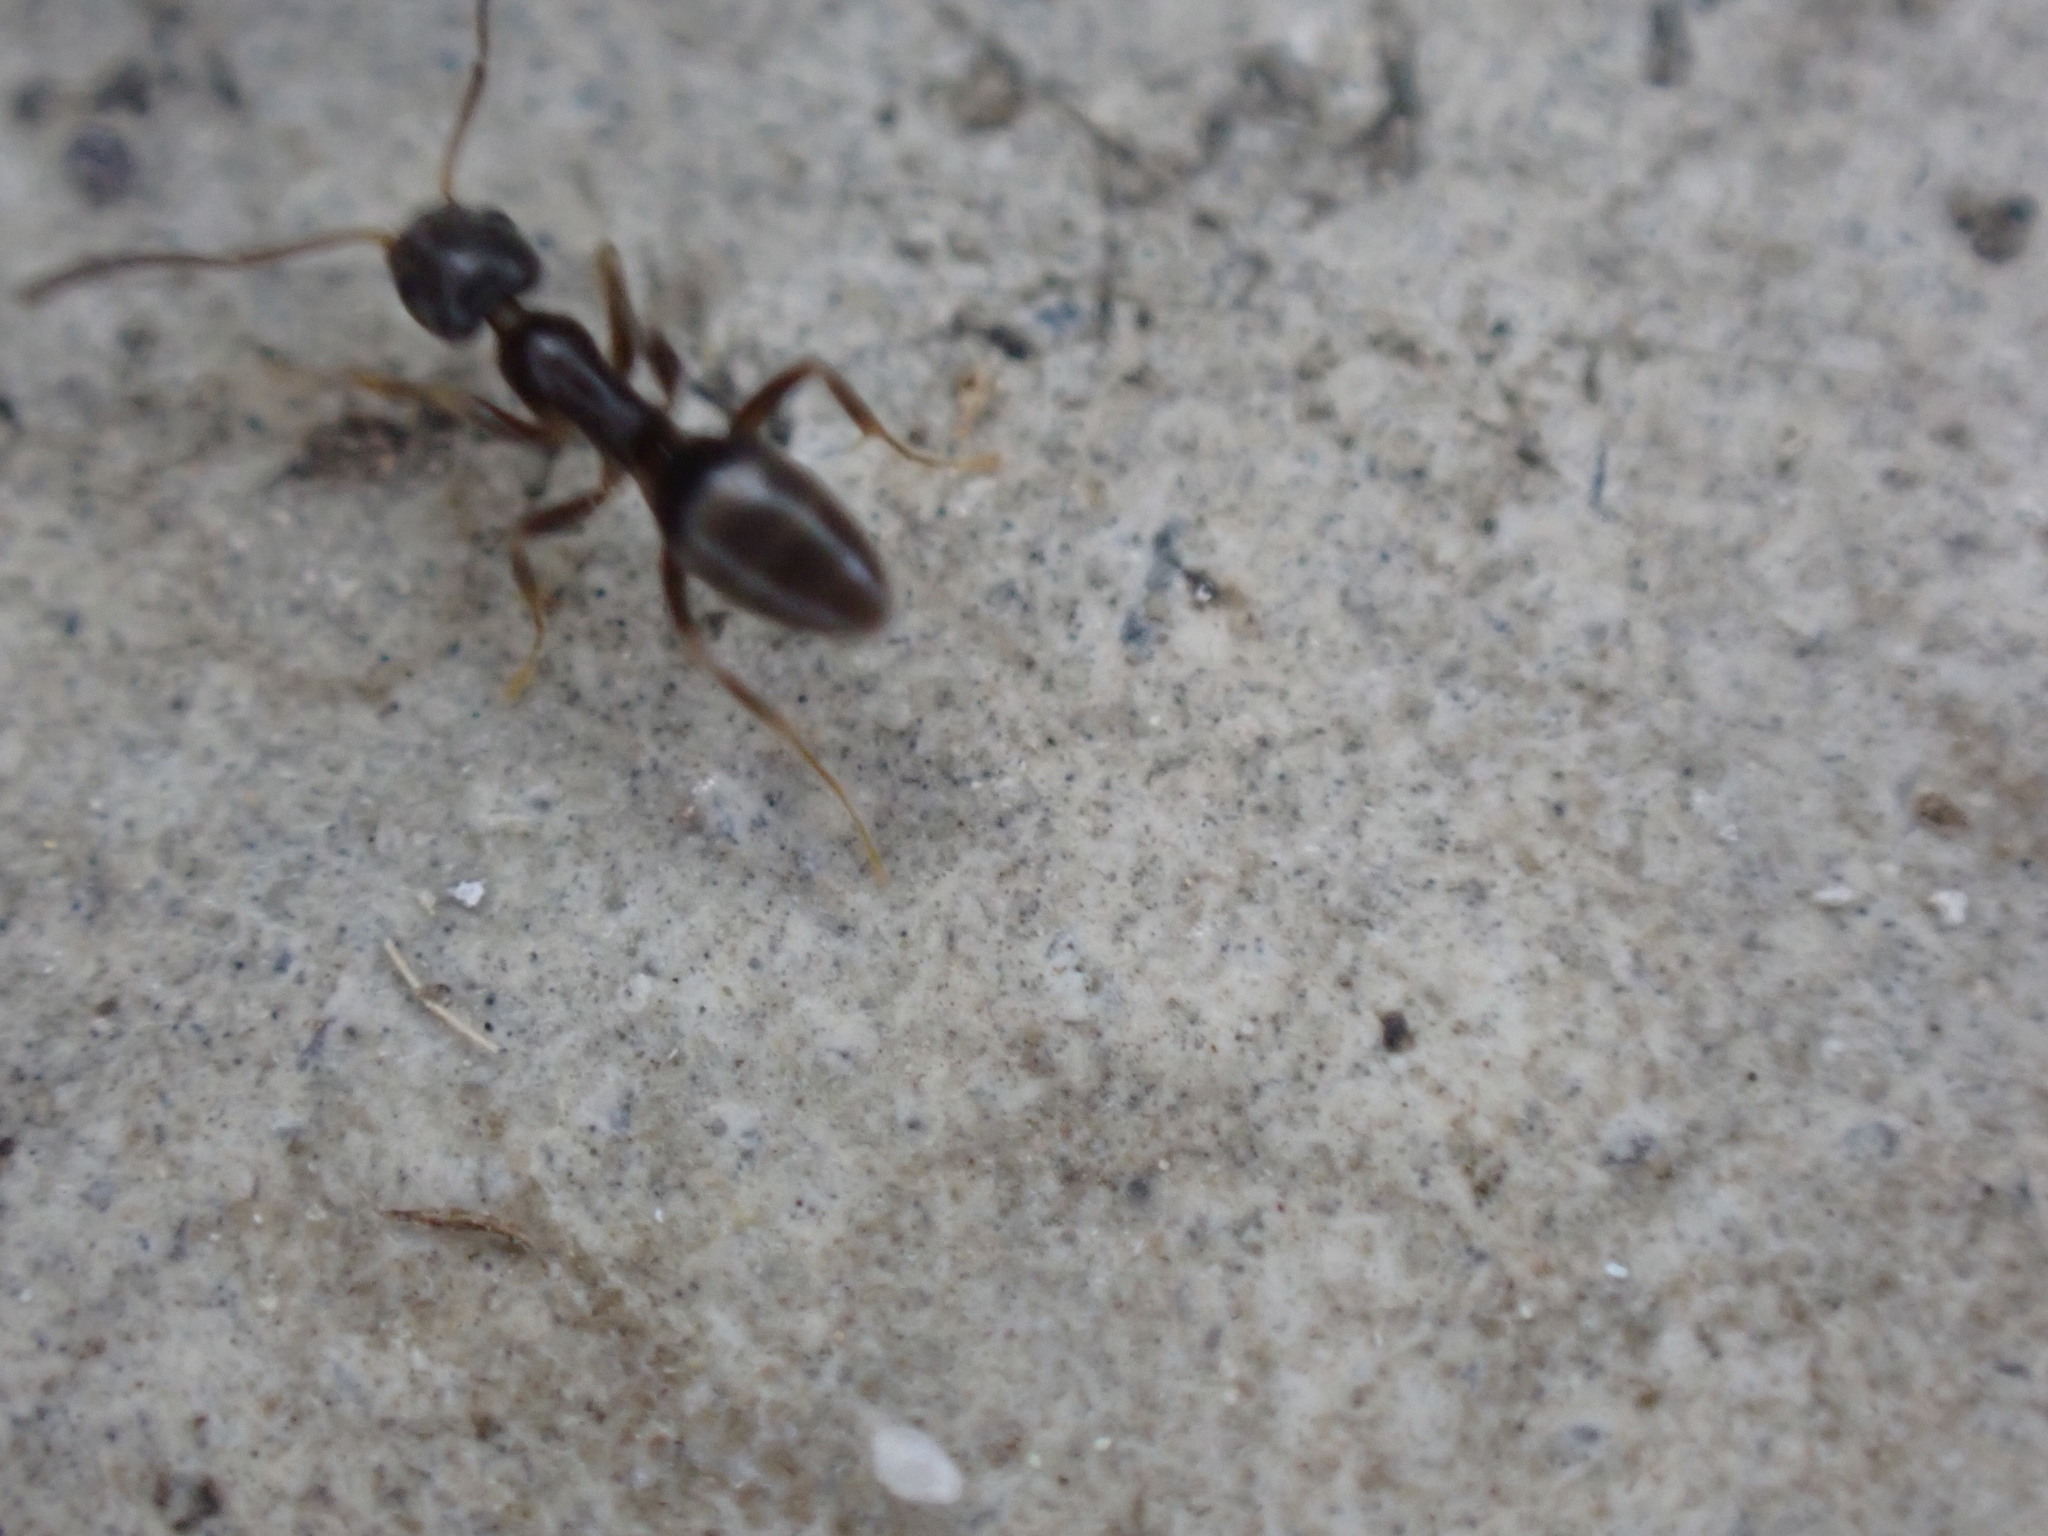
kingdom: Animalia
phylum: Arthropoda
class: Insecta
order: Hymenoptera
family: Formicidae
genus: Tapinoma
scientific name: Tapinoma sessile
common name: Odorous house ant
